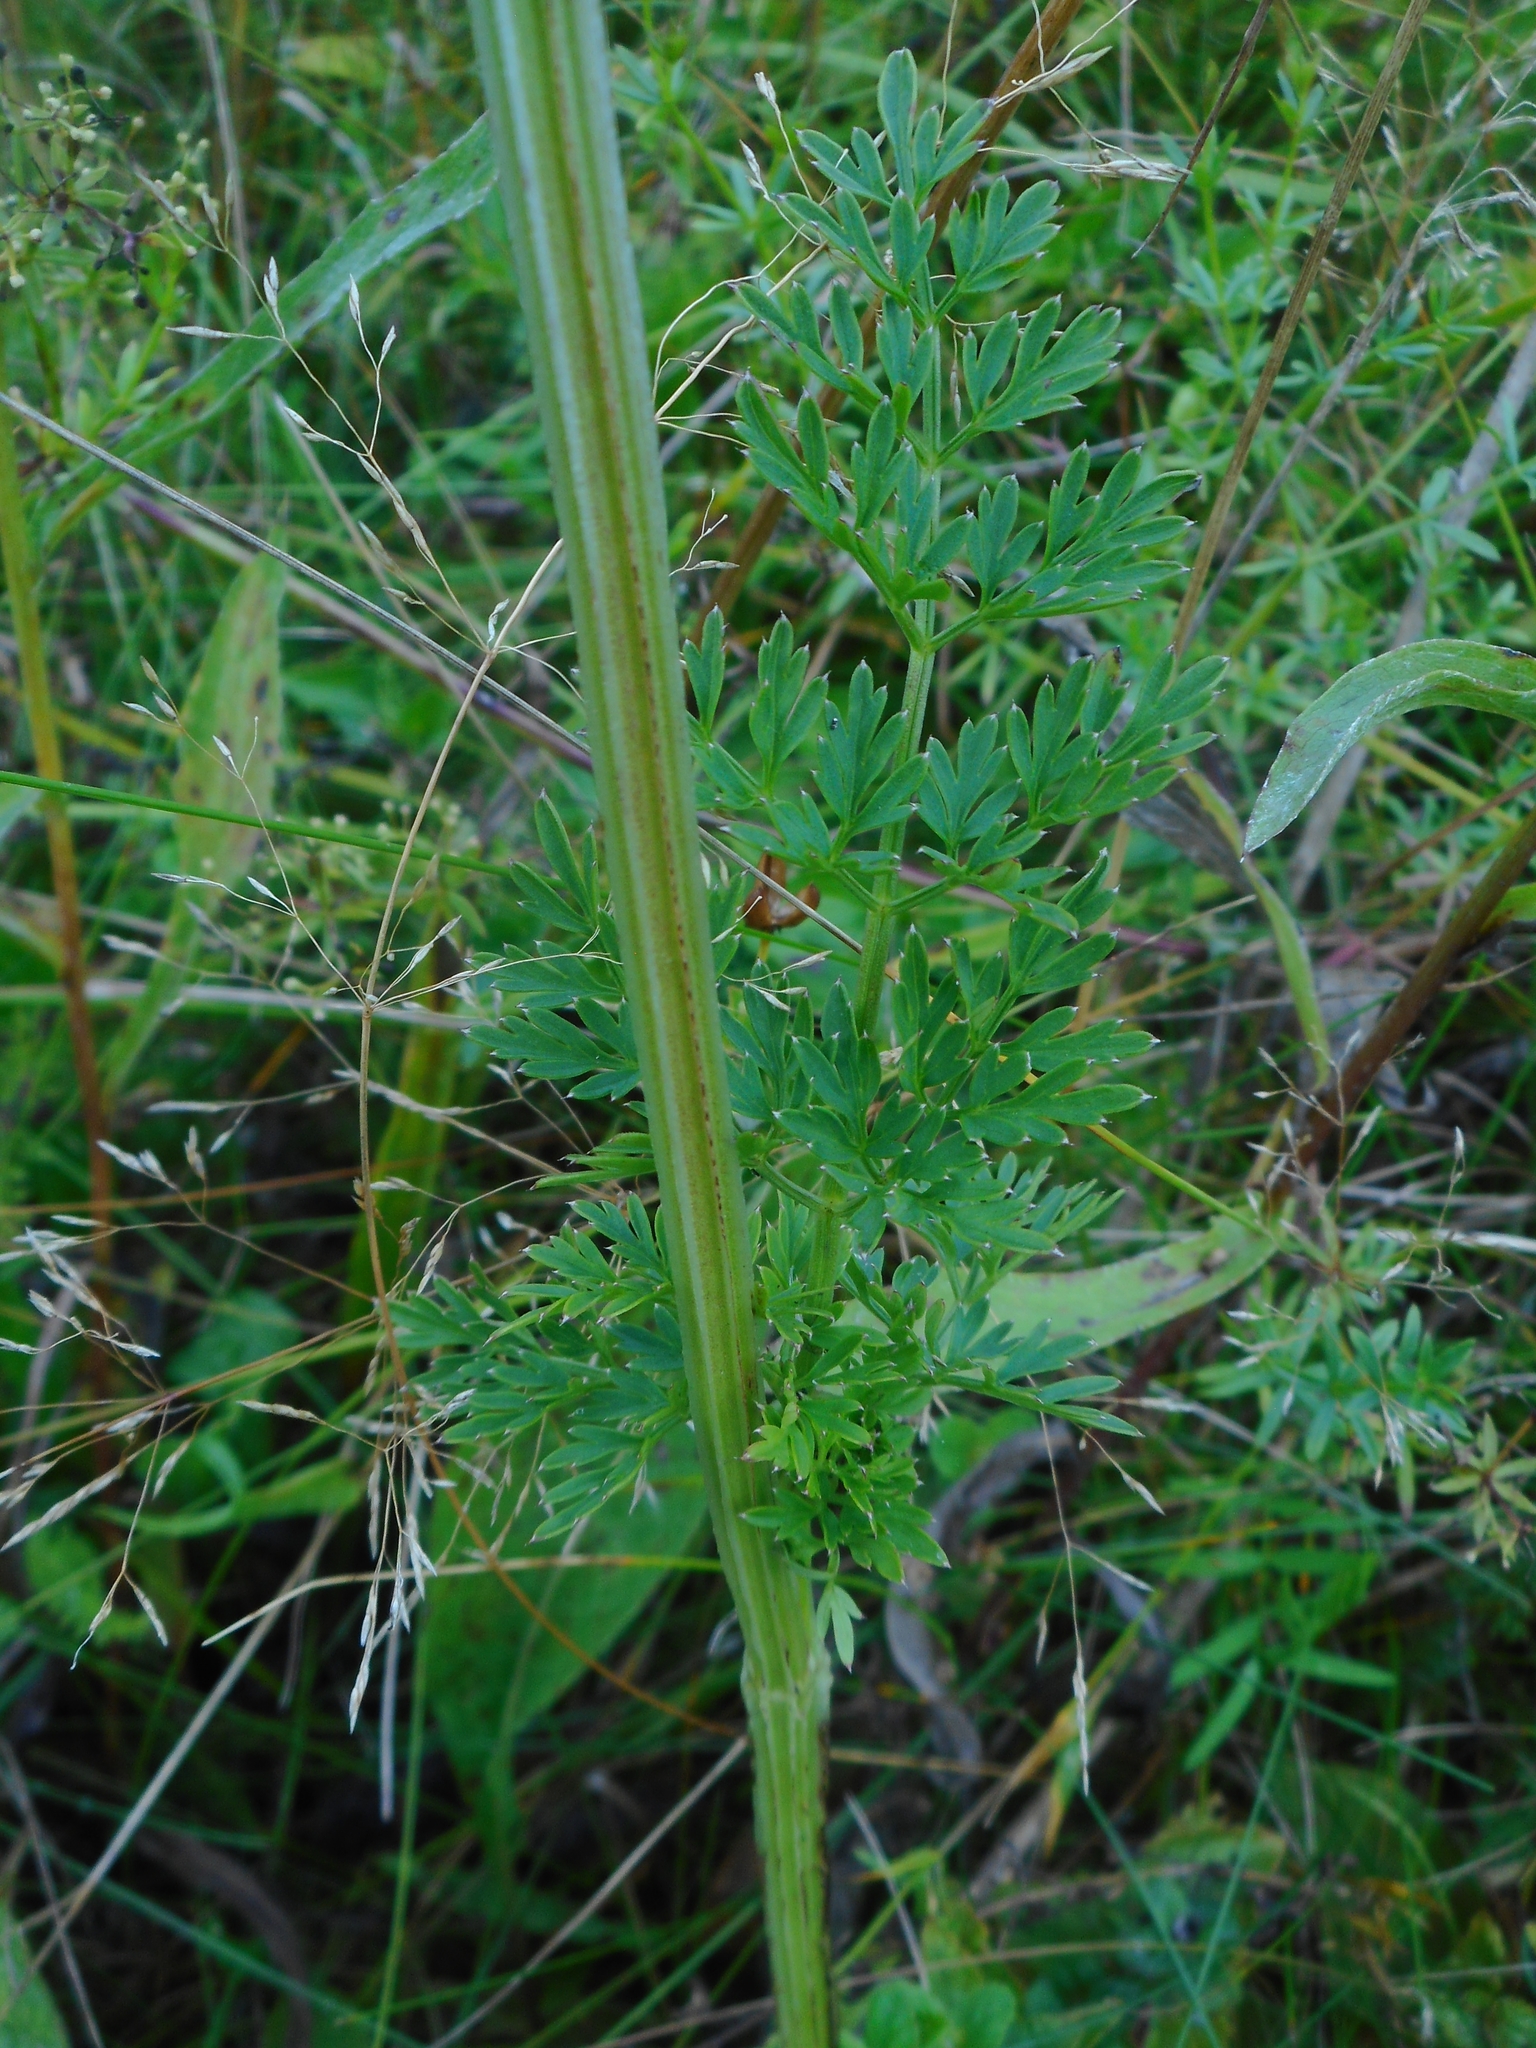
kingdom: Plantae
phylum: Tracheophyta
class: Magnoliopsida
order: Apiales
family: Apiaceae
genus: Selinum
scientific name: Selinum carvifolia
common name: Cambridge milk-parsley
